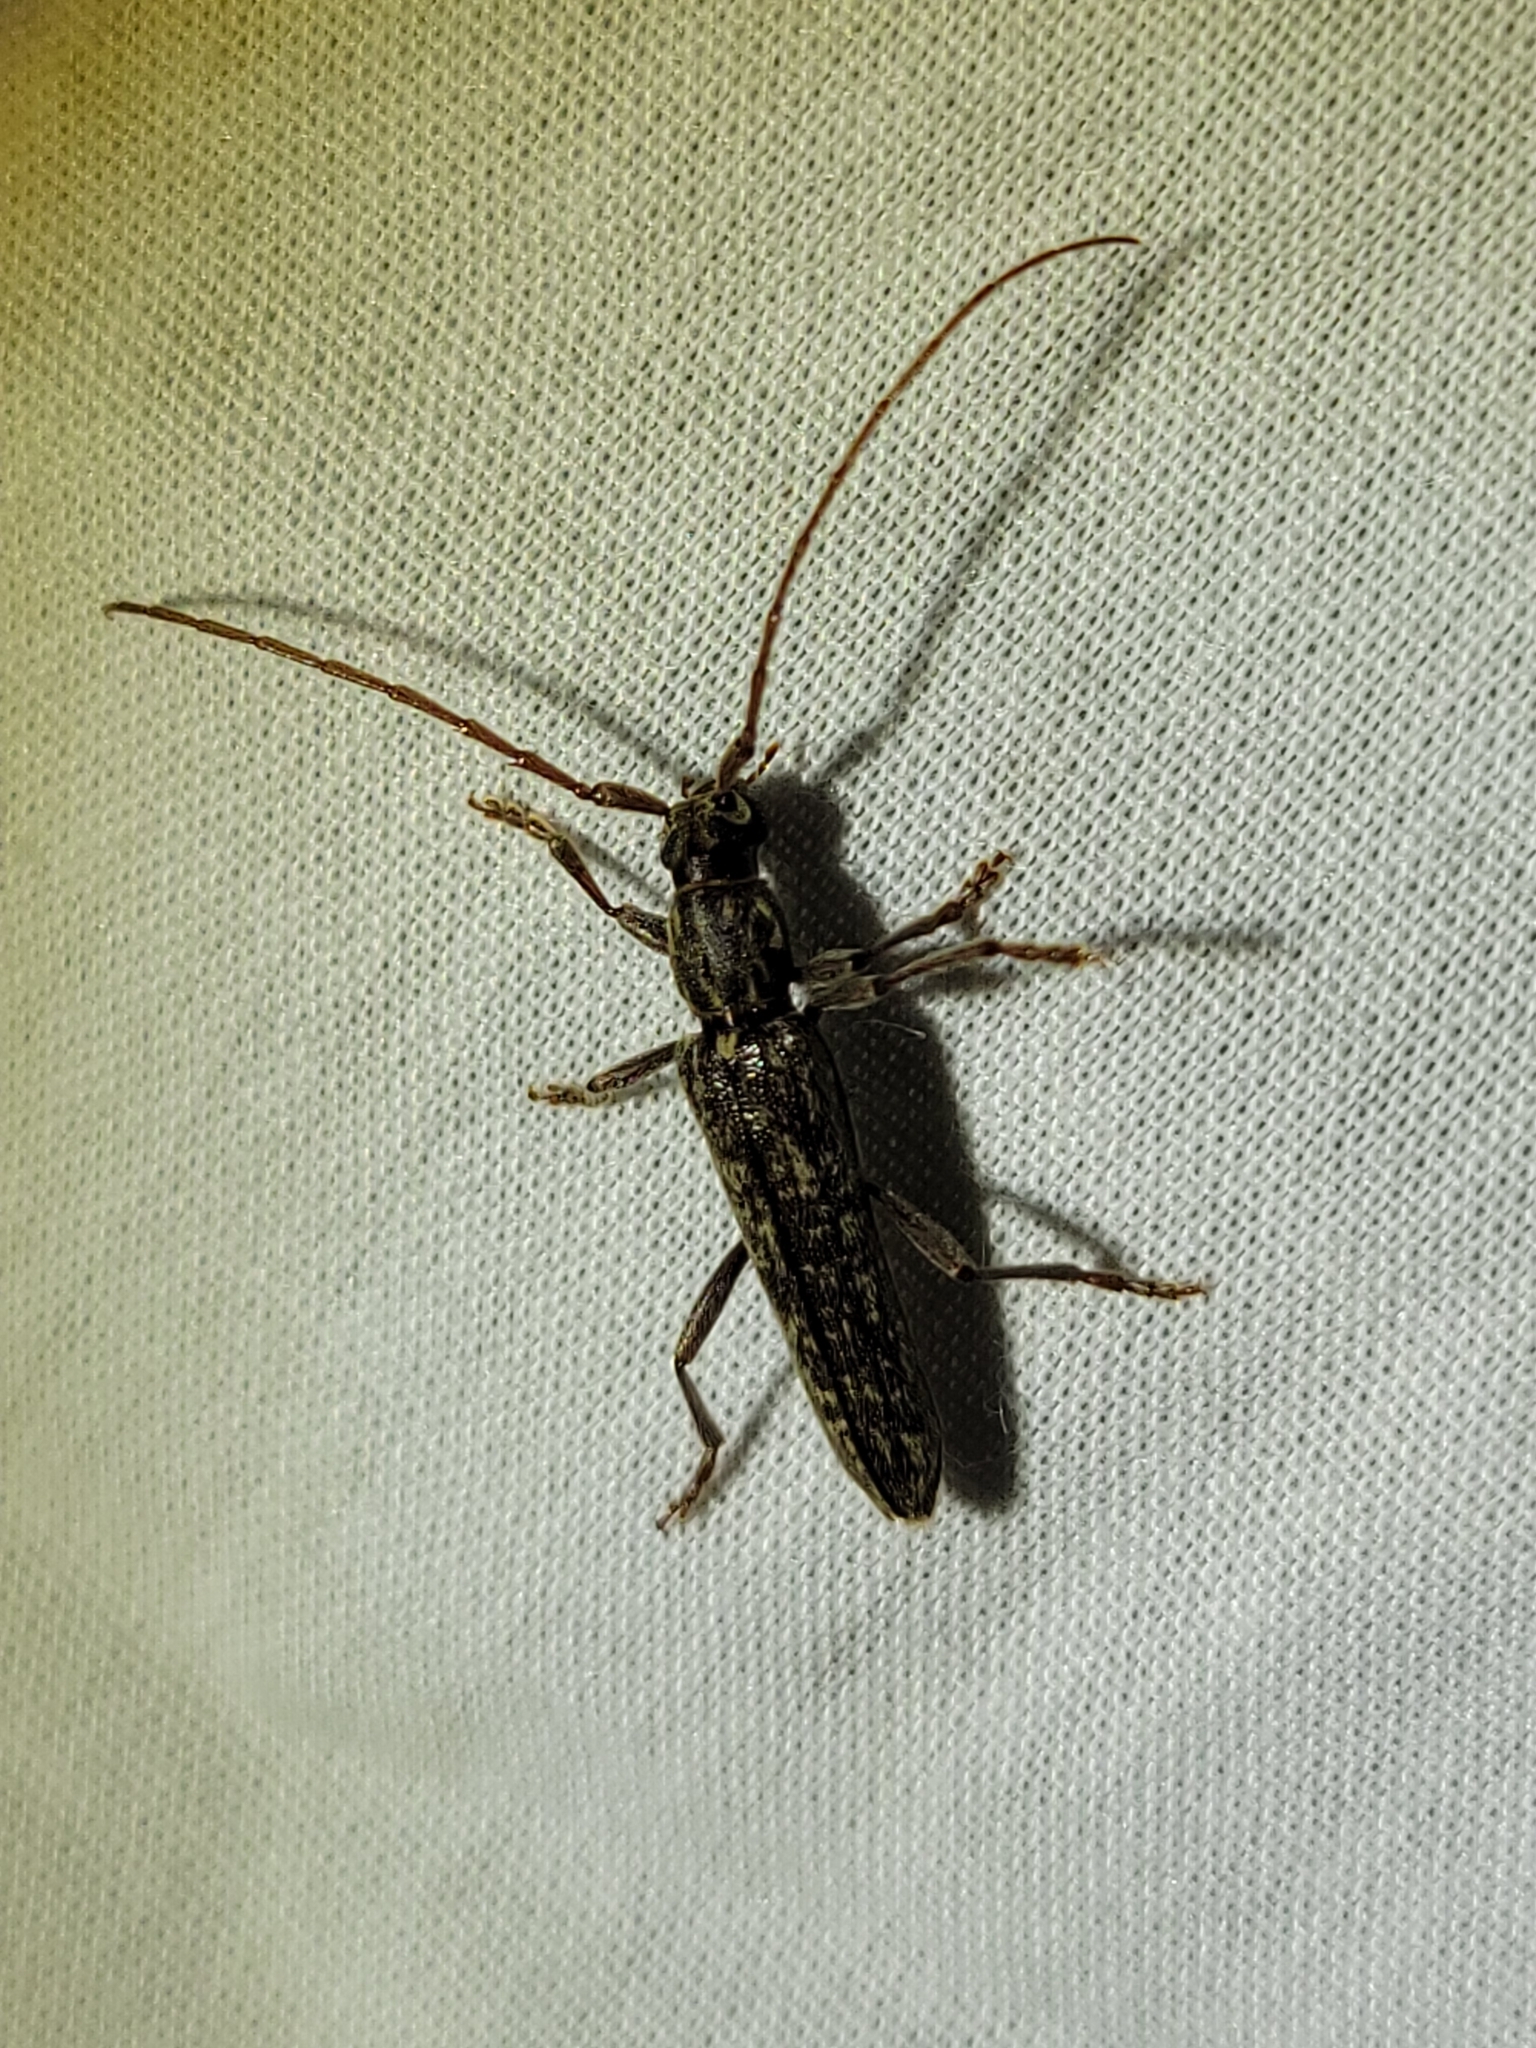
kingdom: Animalia
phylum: Arthropoda
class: Insecta
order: Coleoptera
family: Cerambycidae
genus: Anelaphus
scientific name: Anelaphus villosus
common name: Twig pruner
